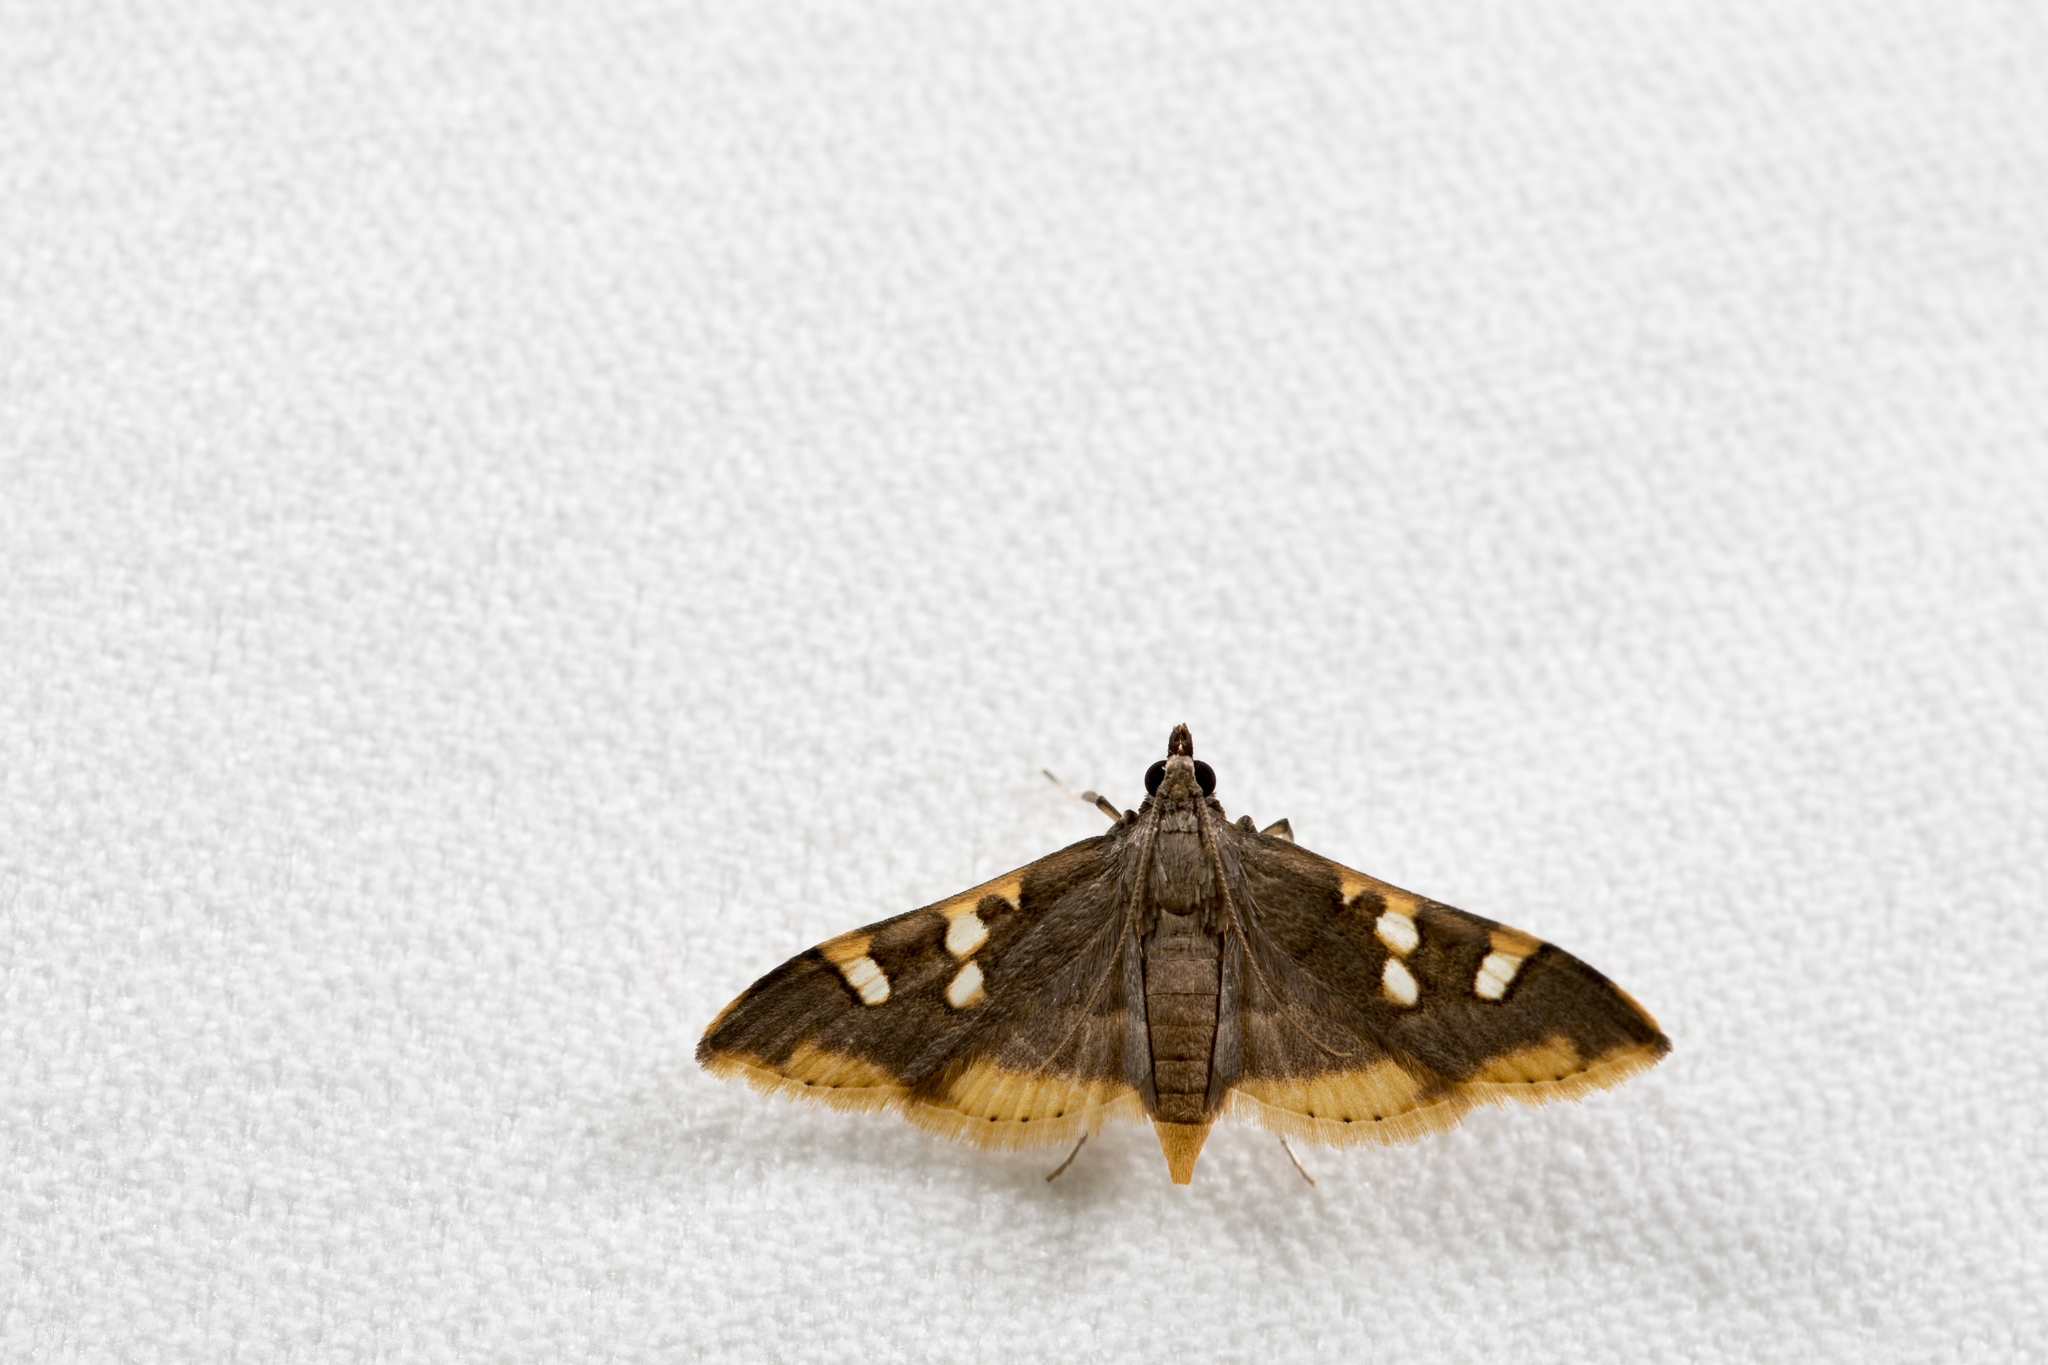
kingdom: Animalia
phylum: Arthropoda
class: Insecta
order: Lepidoptera
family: Crambidae
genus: Prophantis
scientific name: Prophantis adusta
